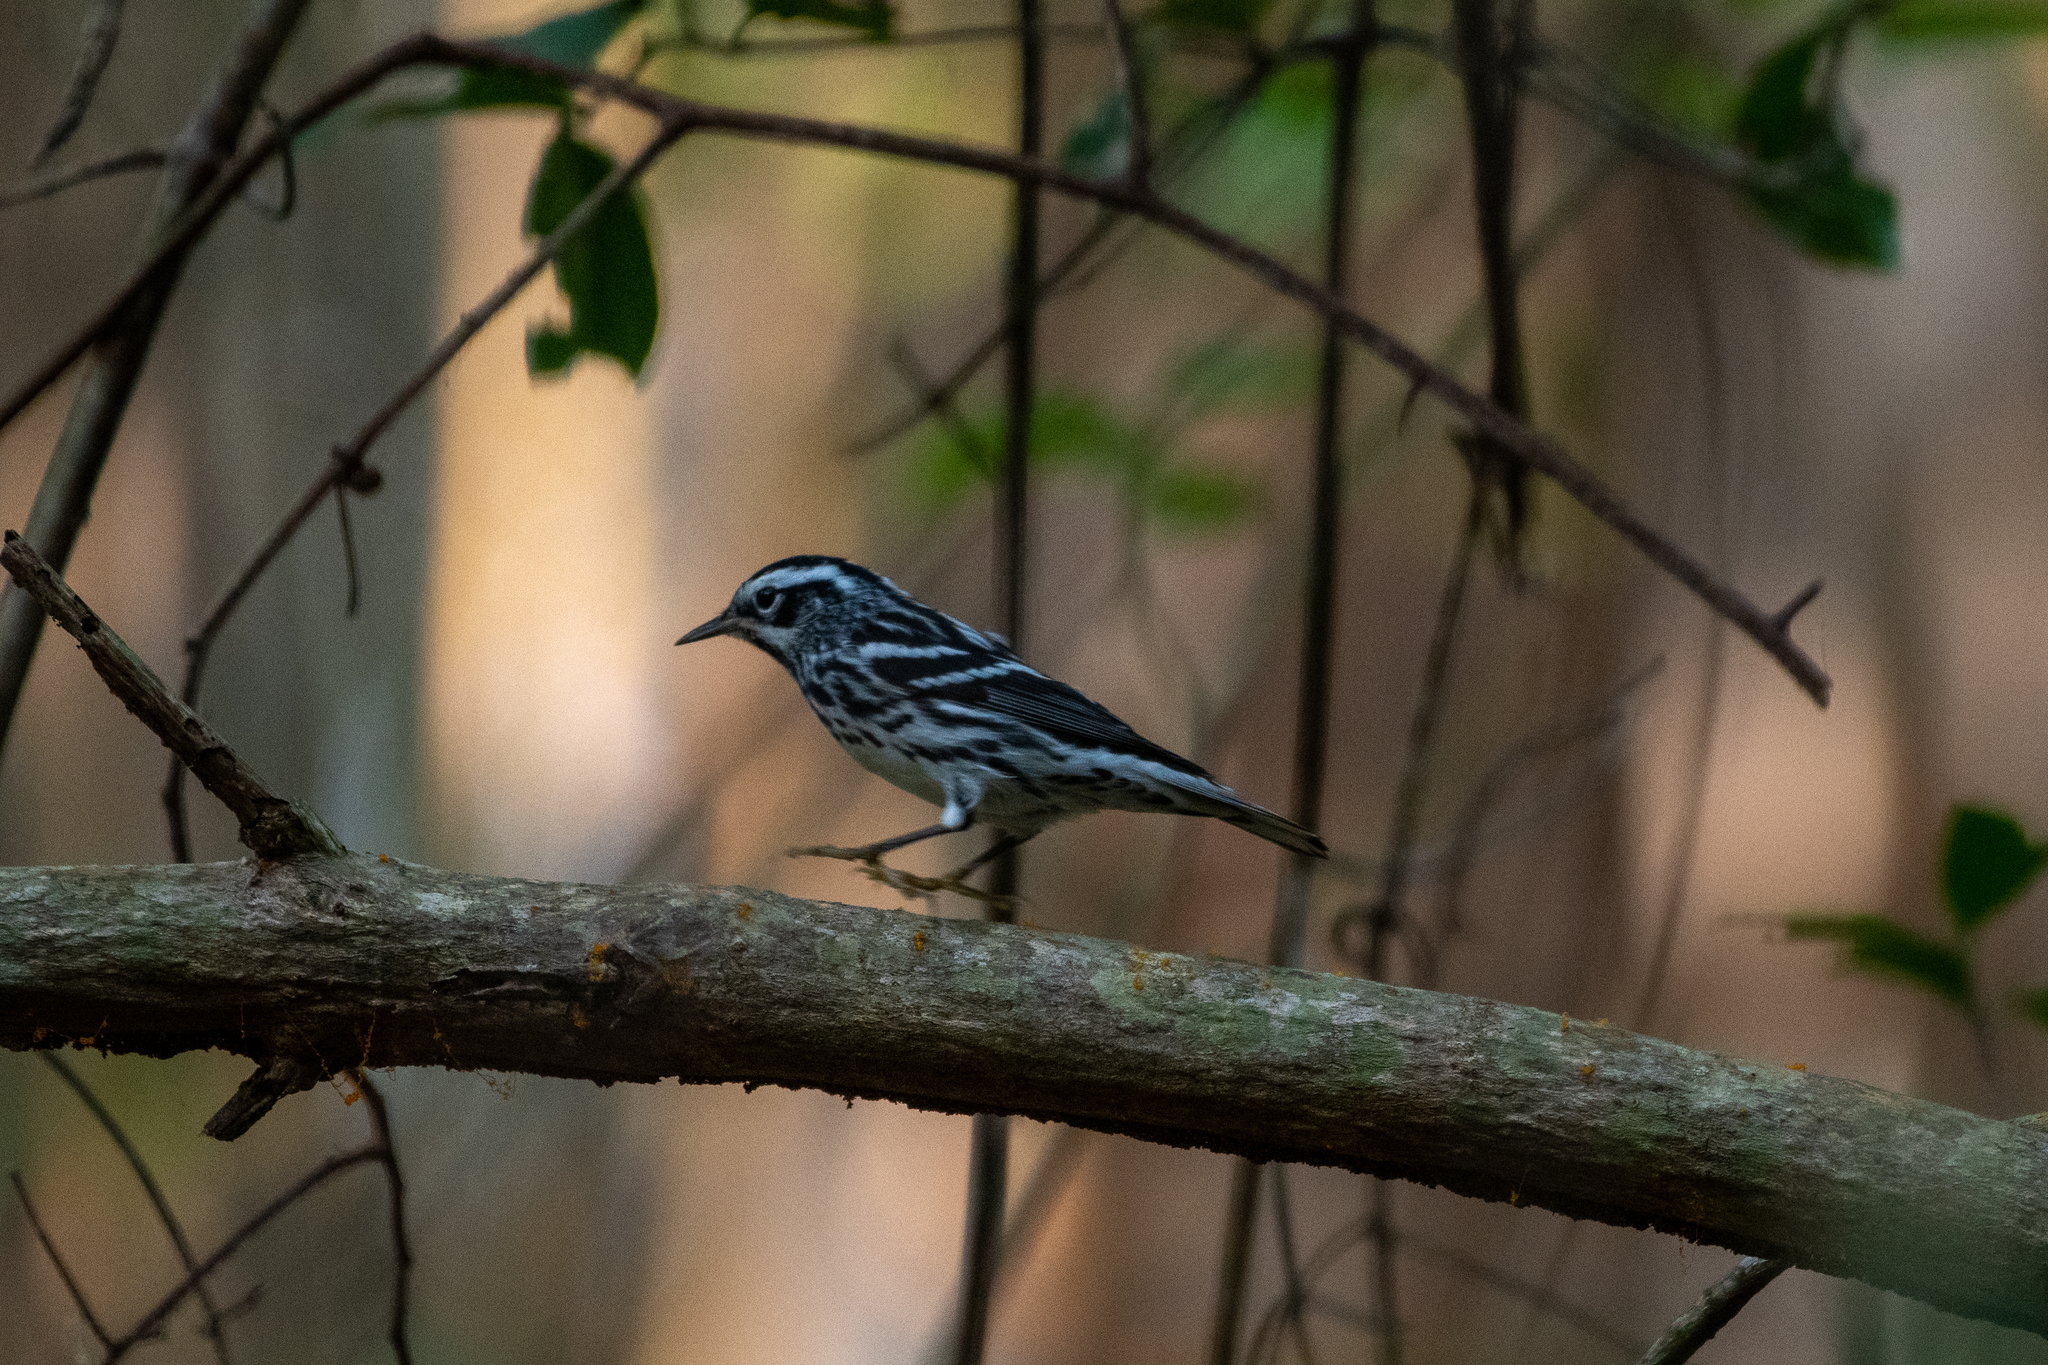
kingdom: Animalia
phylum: Chordata
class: Aves
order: Passeriformes
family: Parulidae
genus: Mniotilta
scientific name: Mniotilta varia
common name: Black-and-white warbler
